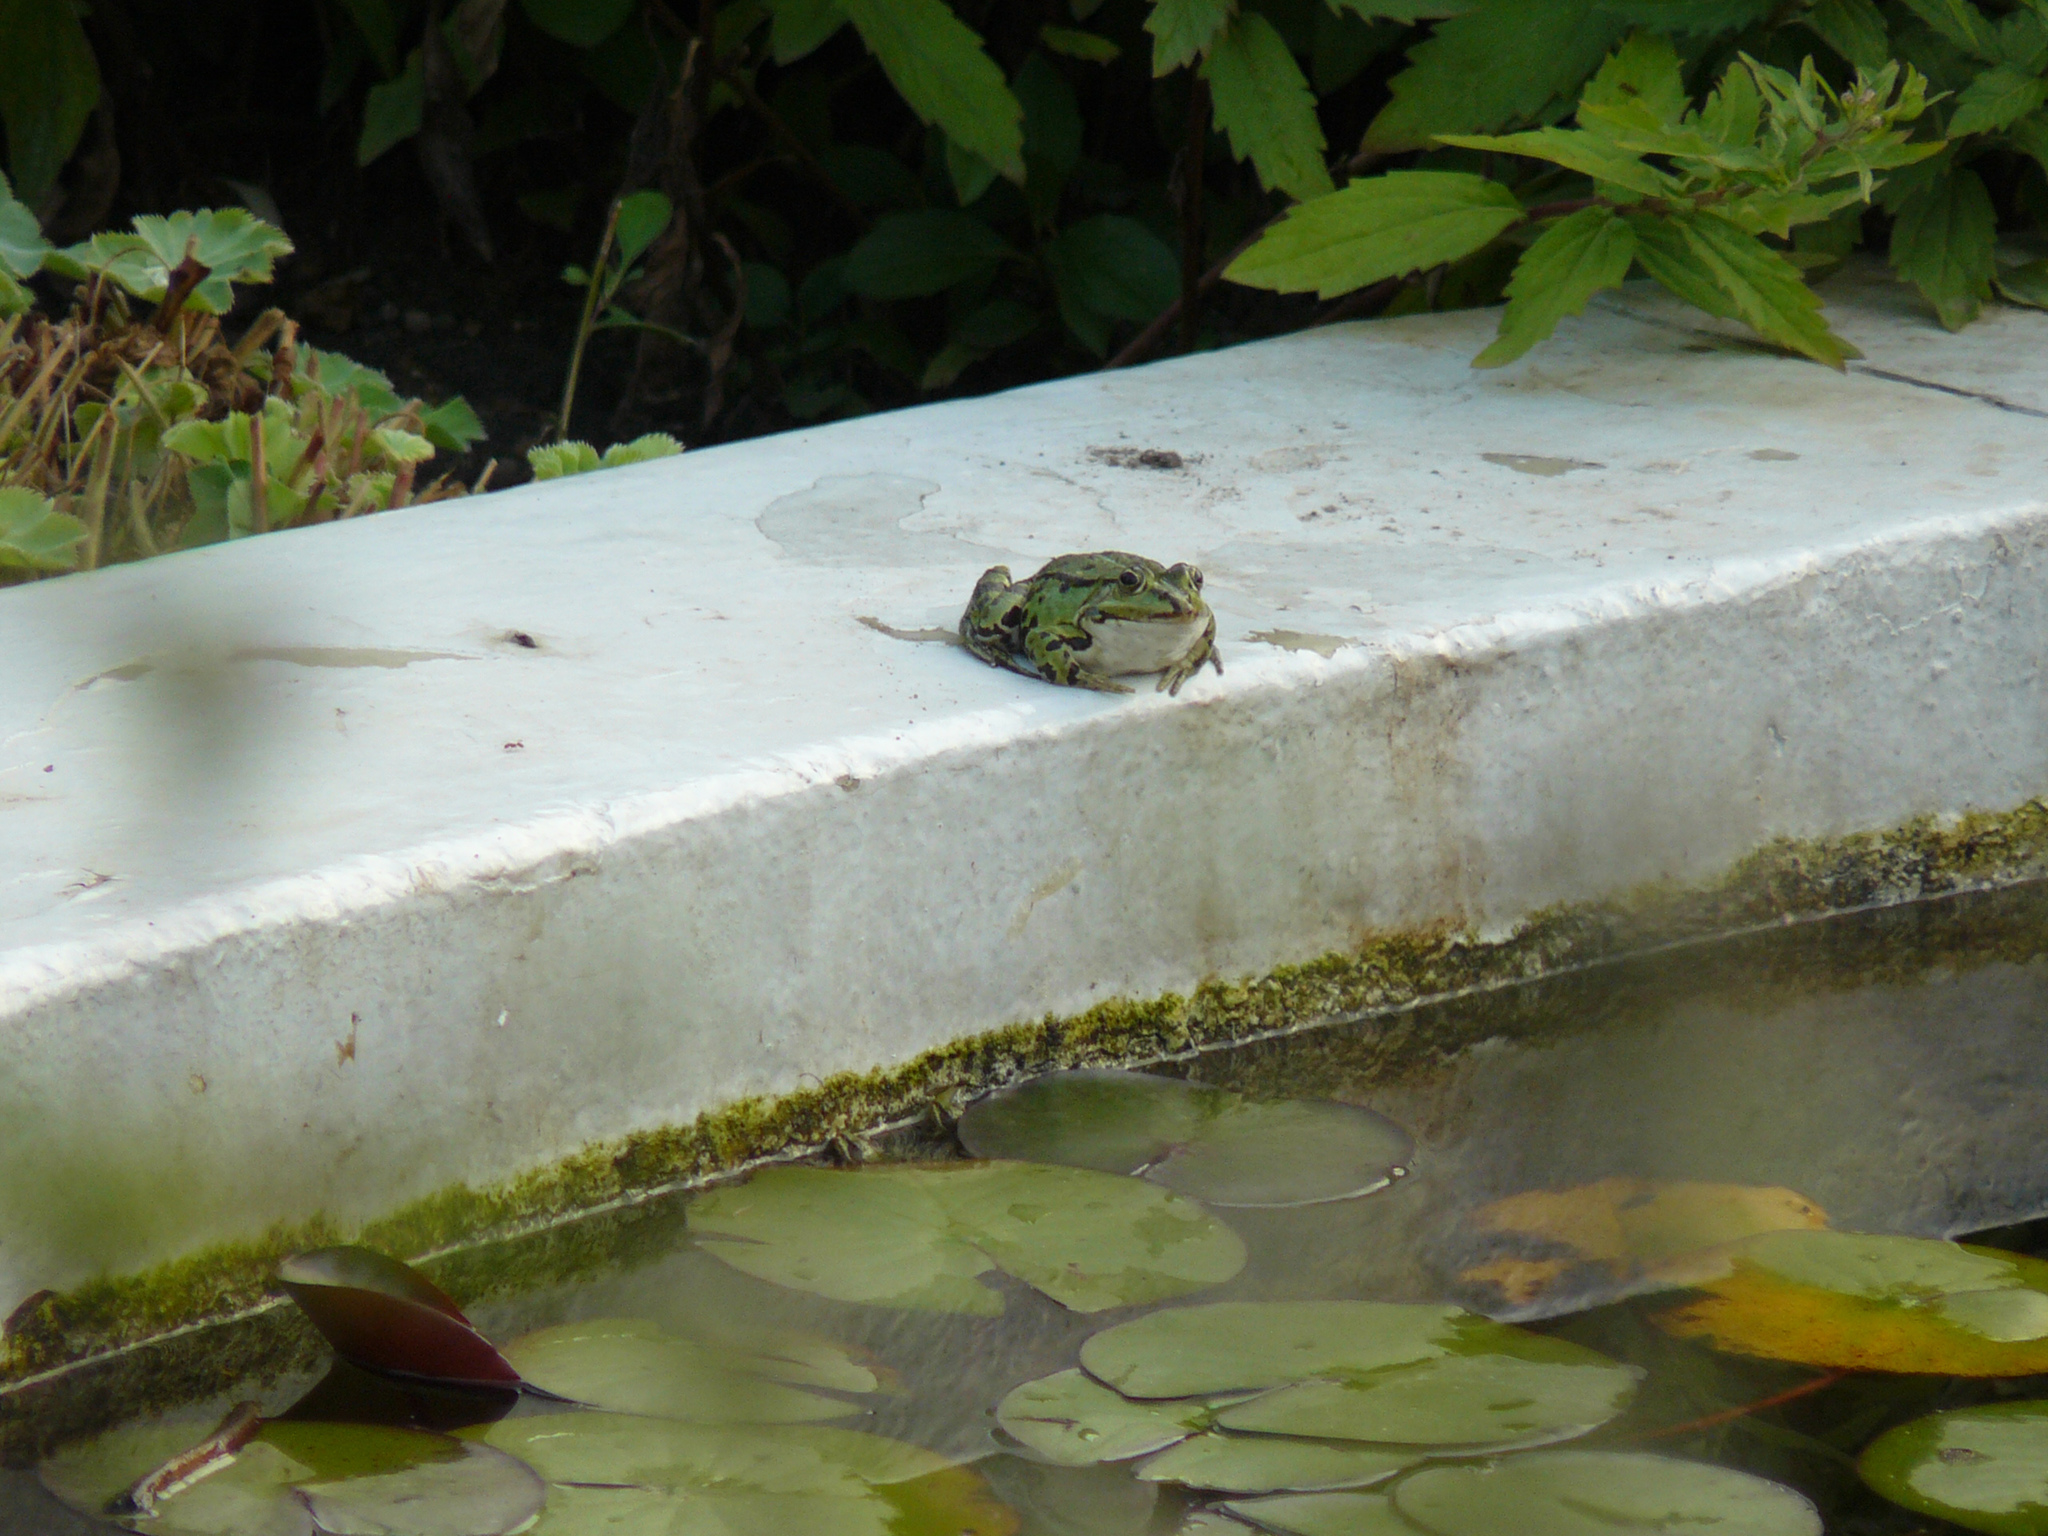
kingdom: Animalia
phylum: Chordata
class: Amphibia
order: Anura
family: Ranidae
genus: Pelophylax
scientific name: Pelophylax
